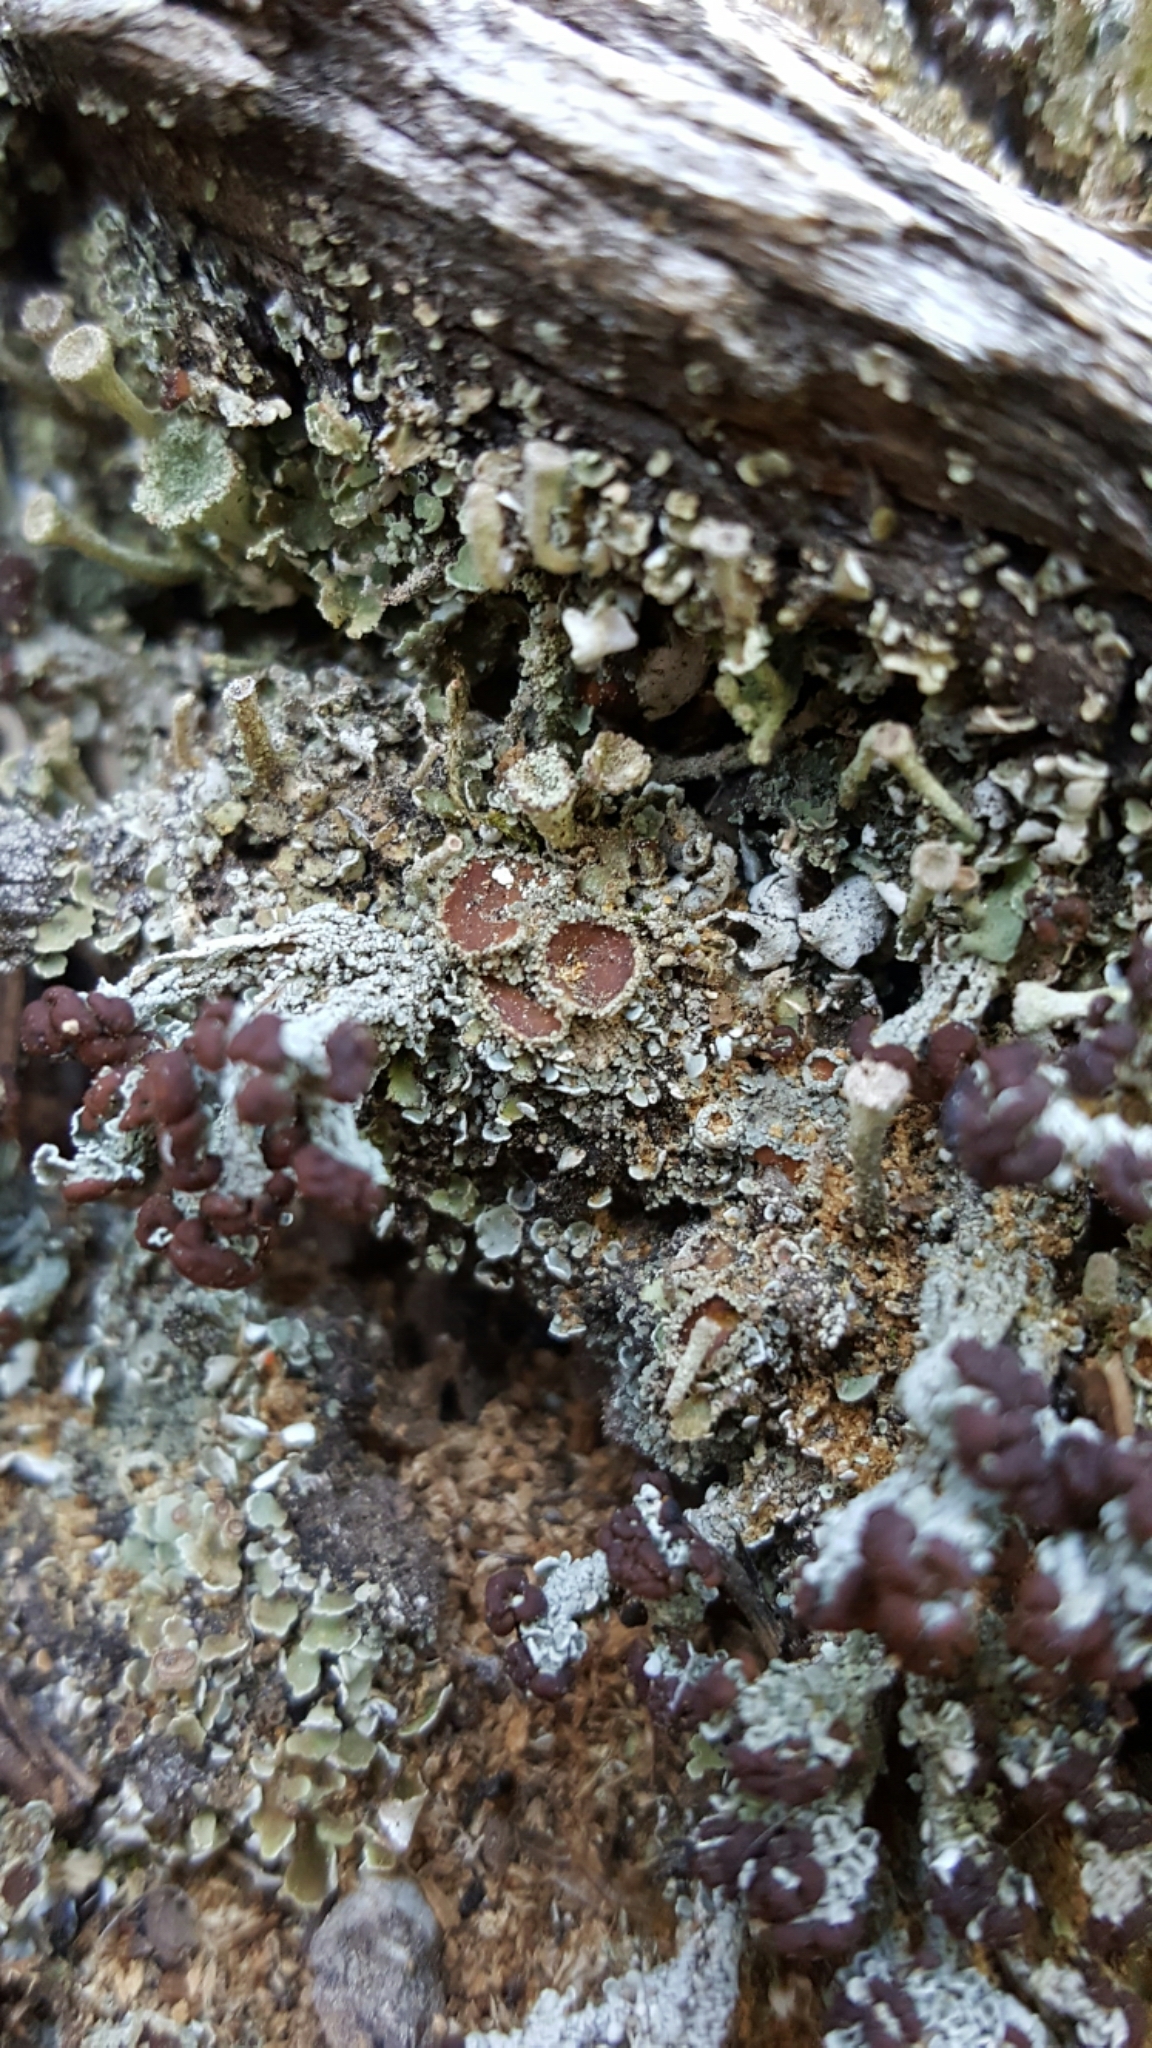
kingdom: Fungi
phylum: Ascomycota
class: Lecanoromycetes
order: Peltigerales
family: Pannariaceae
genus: Protopannaria
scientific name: Protopannaria pezizoides
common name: Brown-gray m oss-shingle
